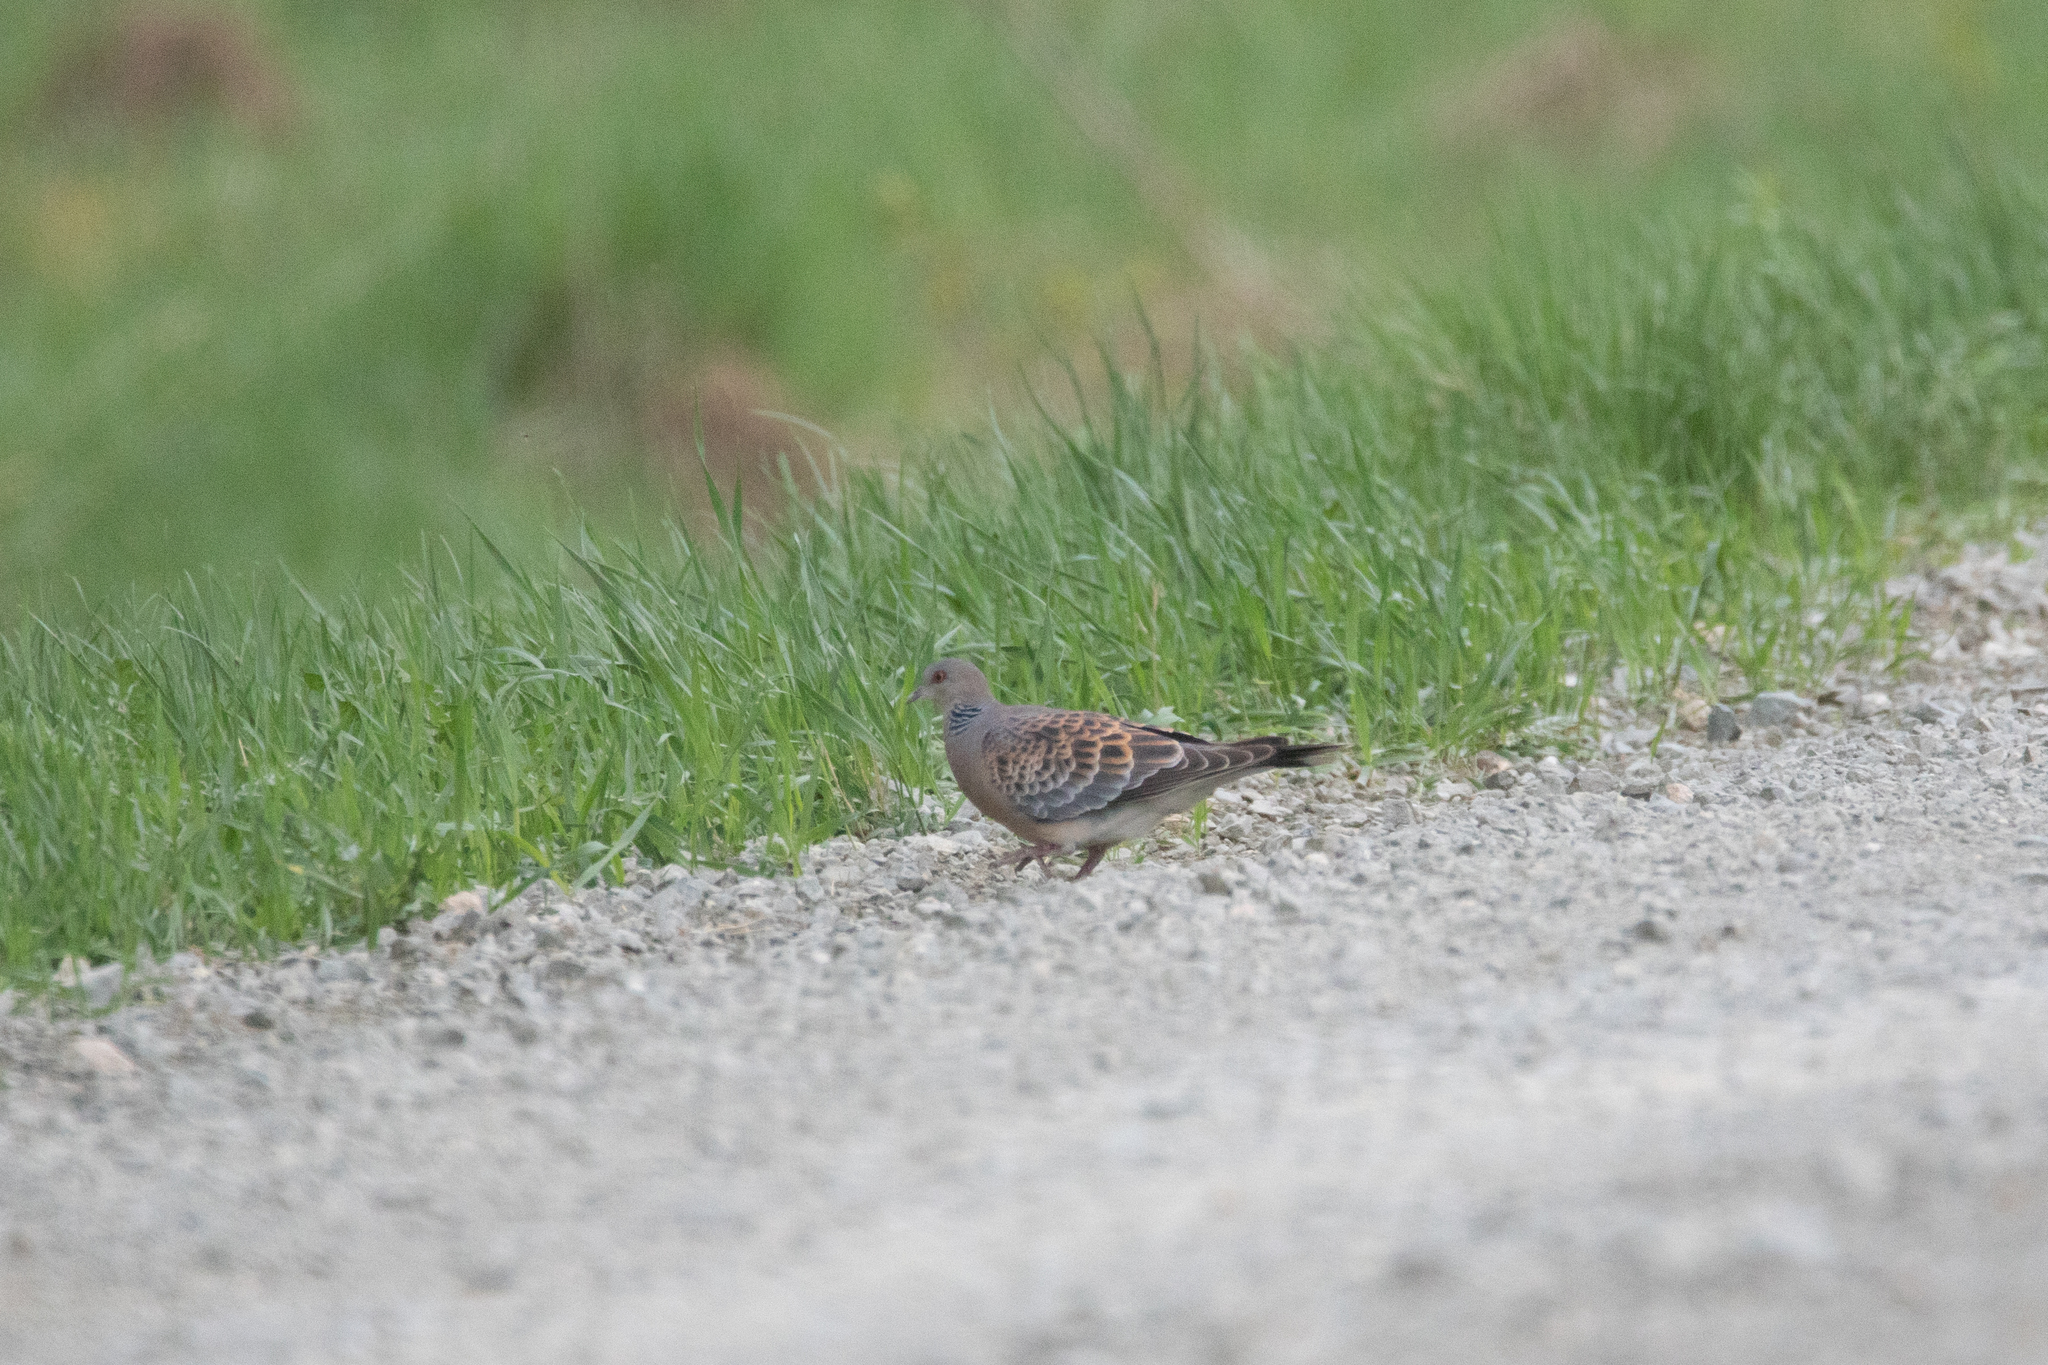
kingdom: Animalia
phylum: Chordata
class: Aves
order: Columbiformes
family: Columbidae
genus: Streptopelia
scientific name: Streptopelia orientalis
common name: Oriental turtle dove
